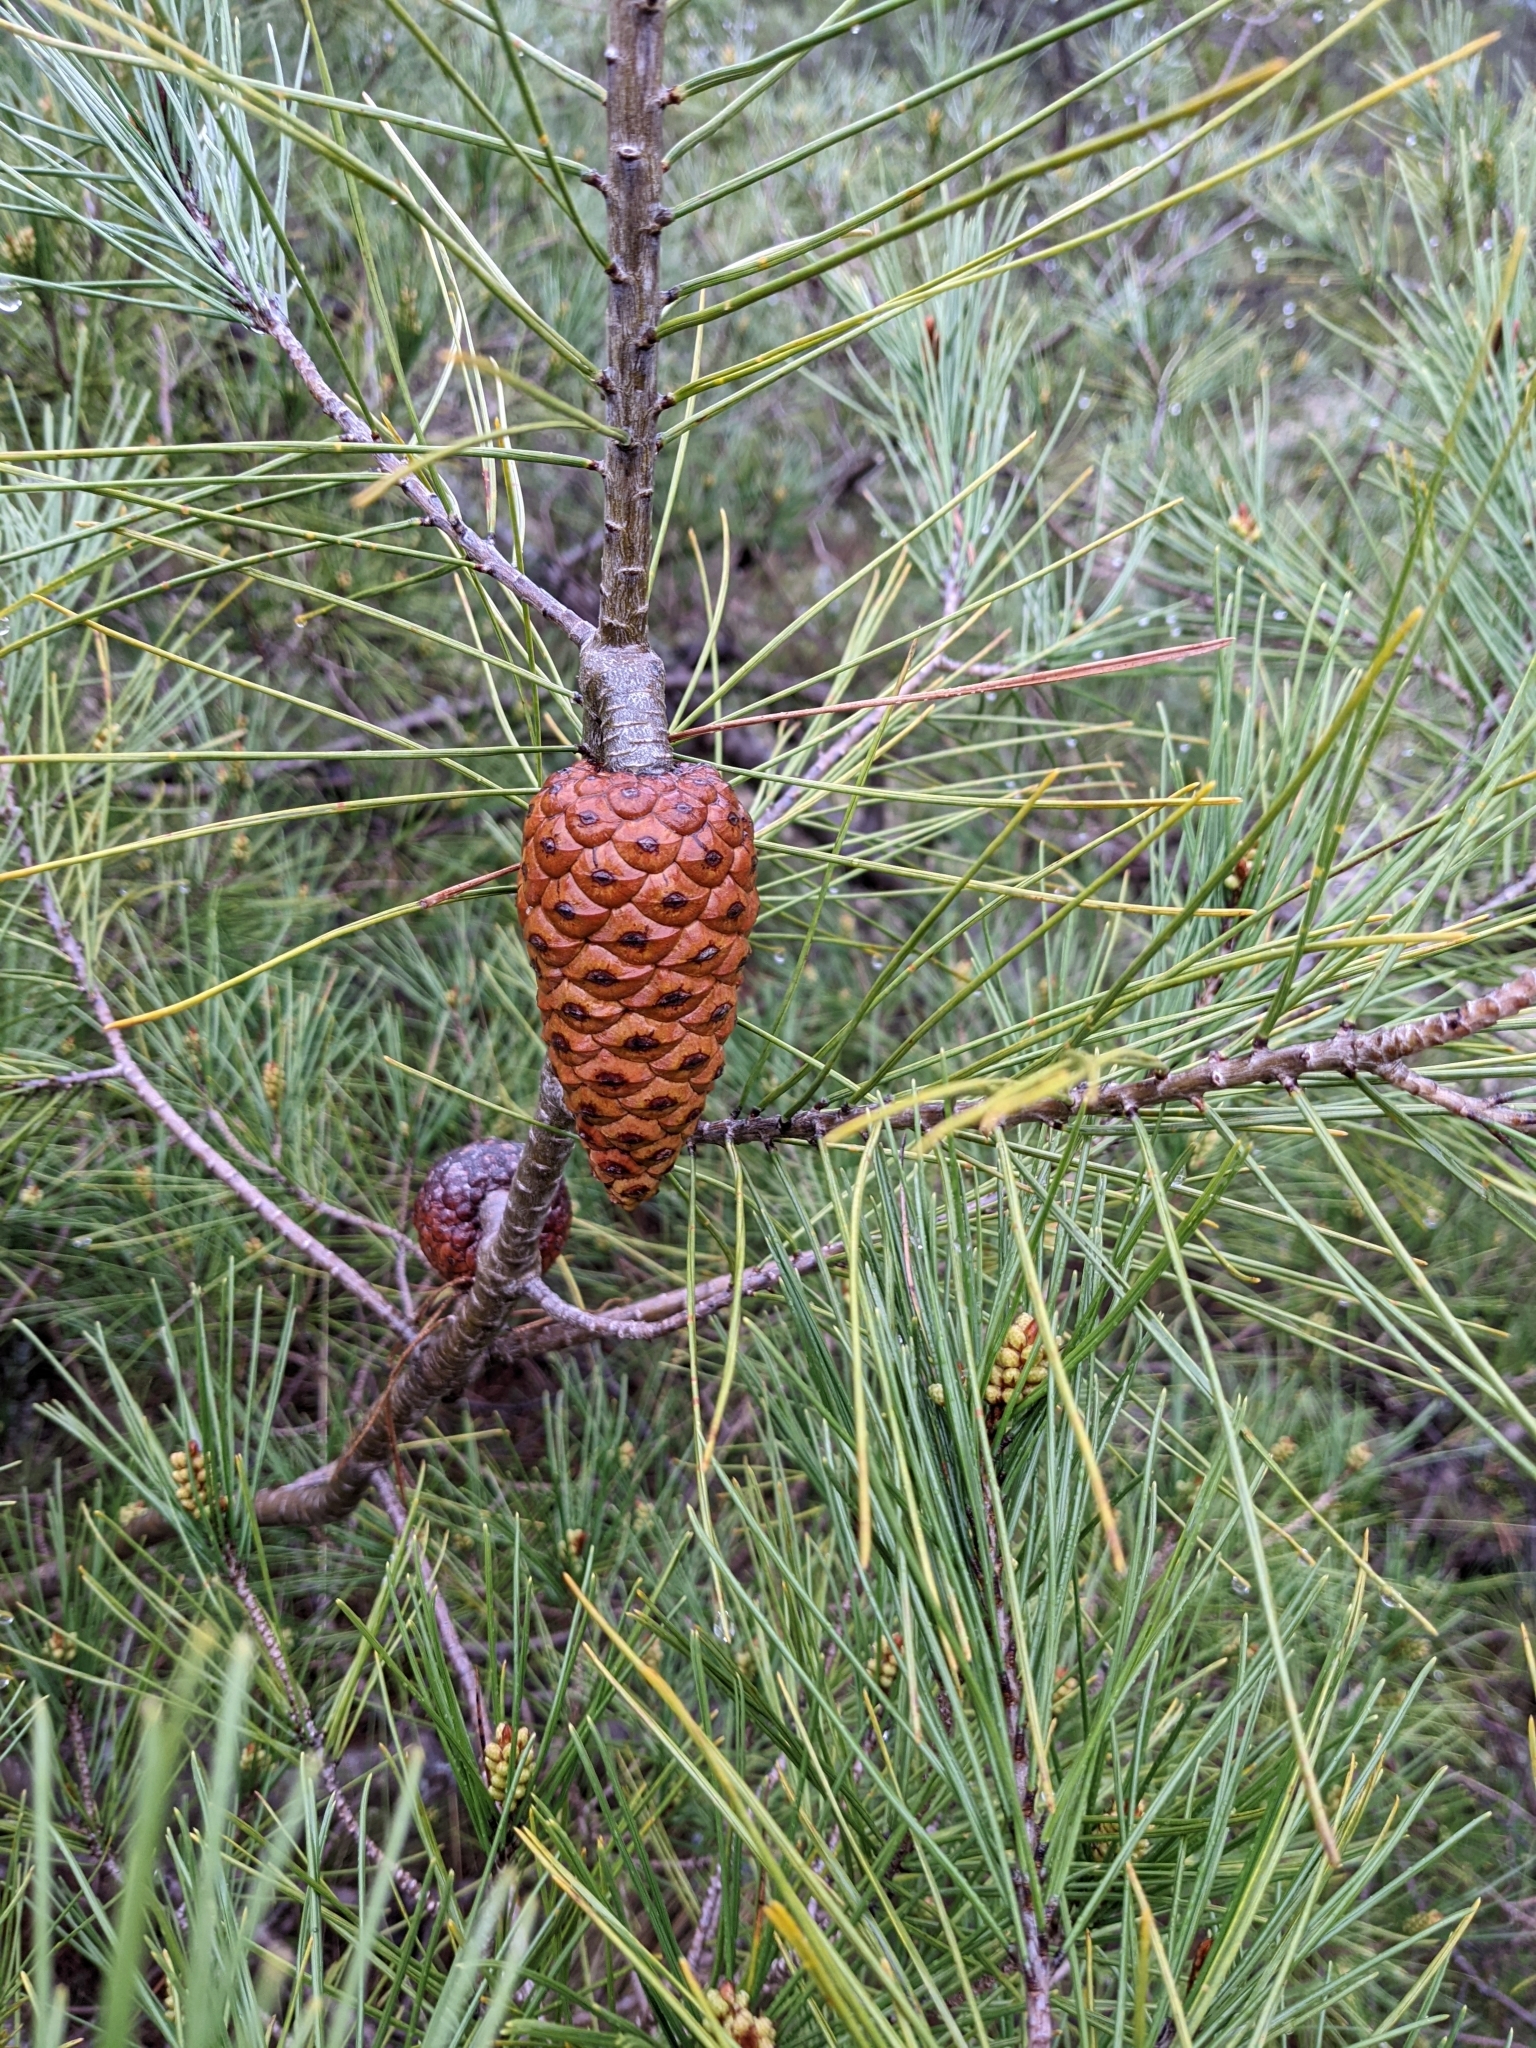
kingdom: Plantae
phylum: Tracheophyta
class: Pinopsida
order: Pinales
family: Pinaceae
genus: Pinus
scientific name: Pinus halepensis
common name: Aleppo pine
